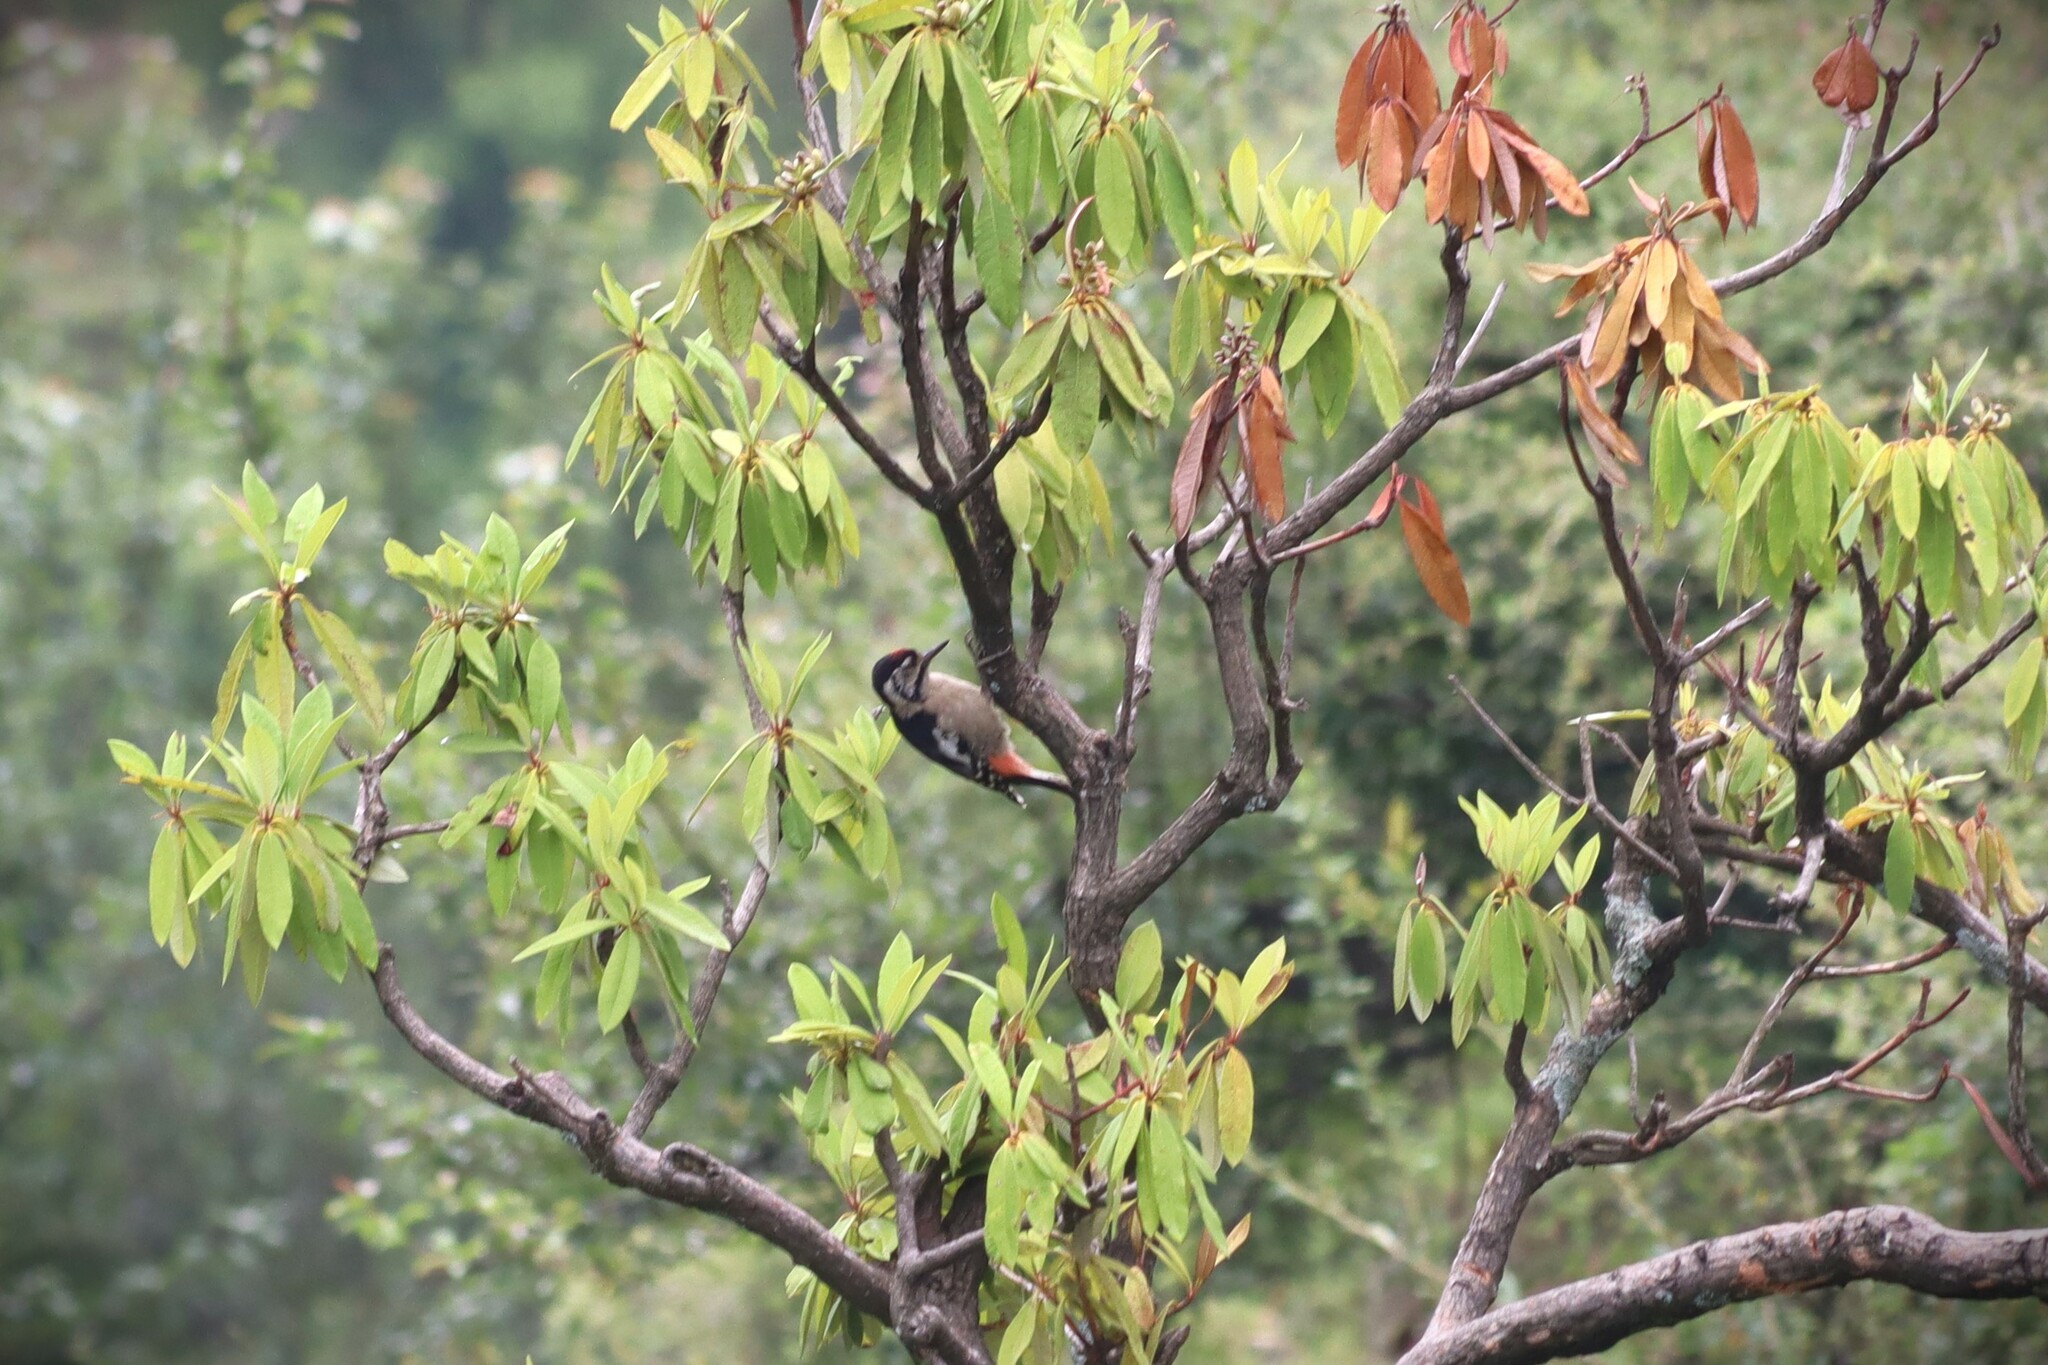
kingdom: Animalia
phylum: Chordata
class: Aves
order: Piciformes
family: Picidae
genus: Dendrocopos
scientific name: Dendrocopos himalayensis
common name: Himalayan woodpecker
